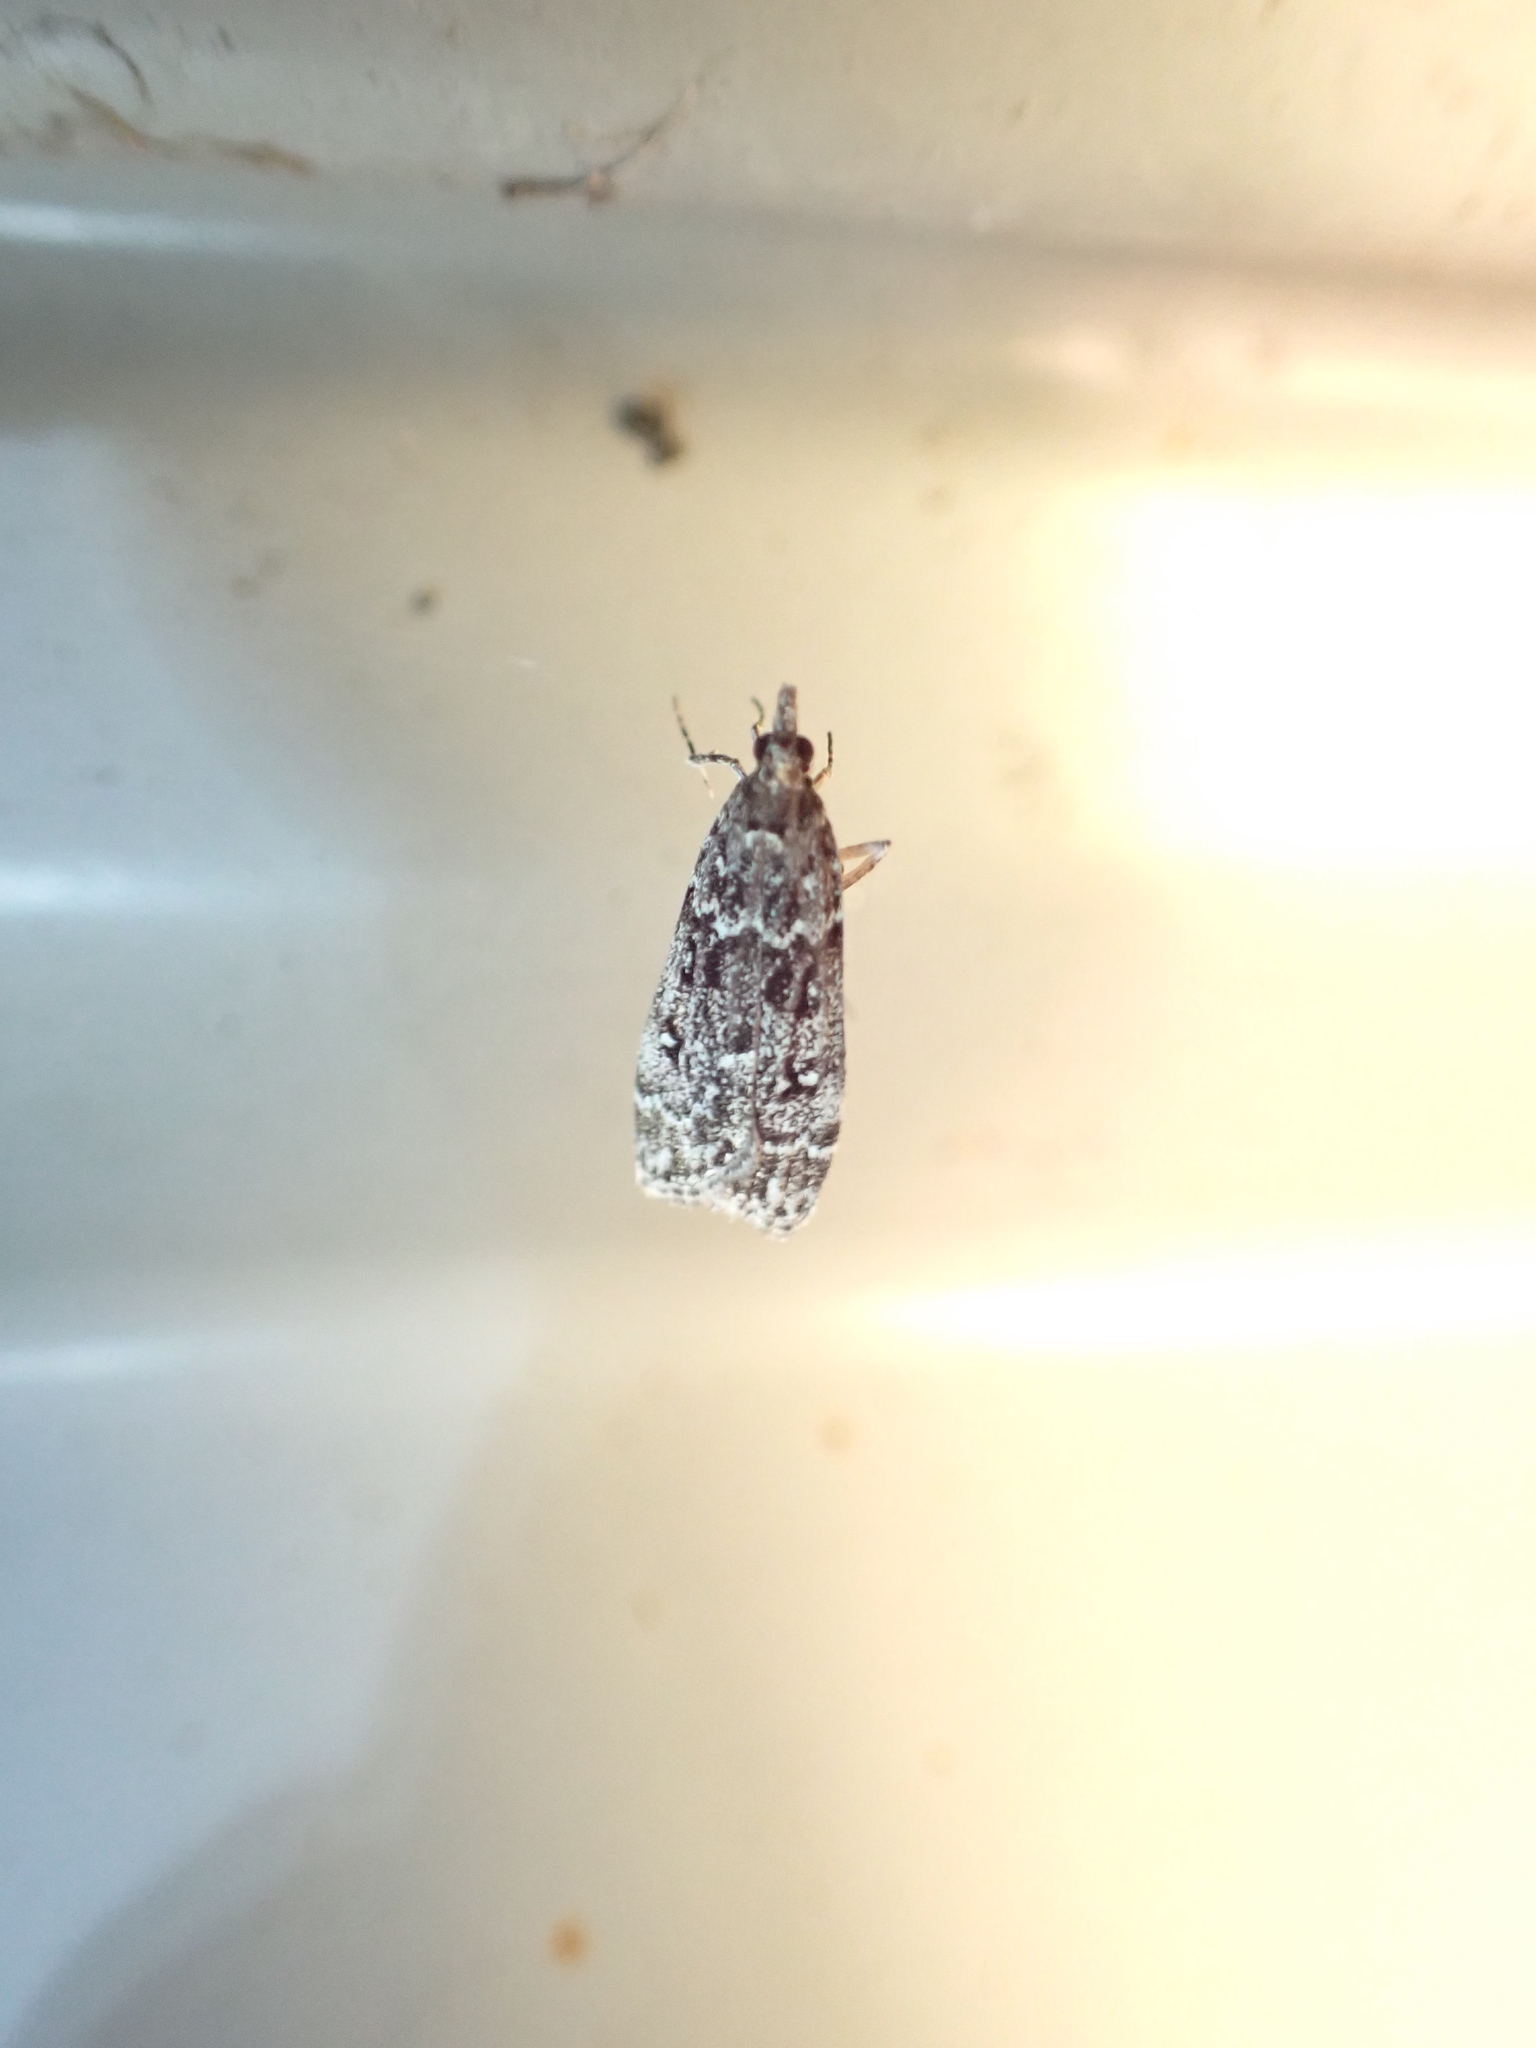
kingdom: Animalia
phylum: Arthropoda
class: Insecta
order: Lepidoptera
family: Crambidae
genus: Eudonia
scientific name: Eudonia philerga
